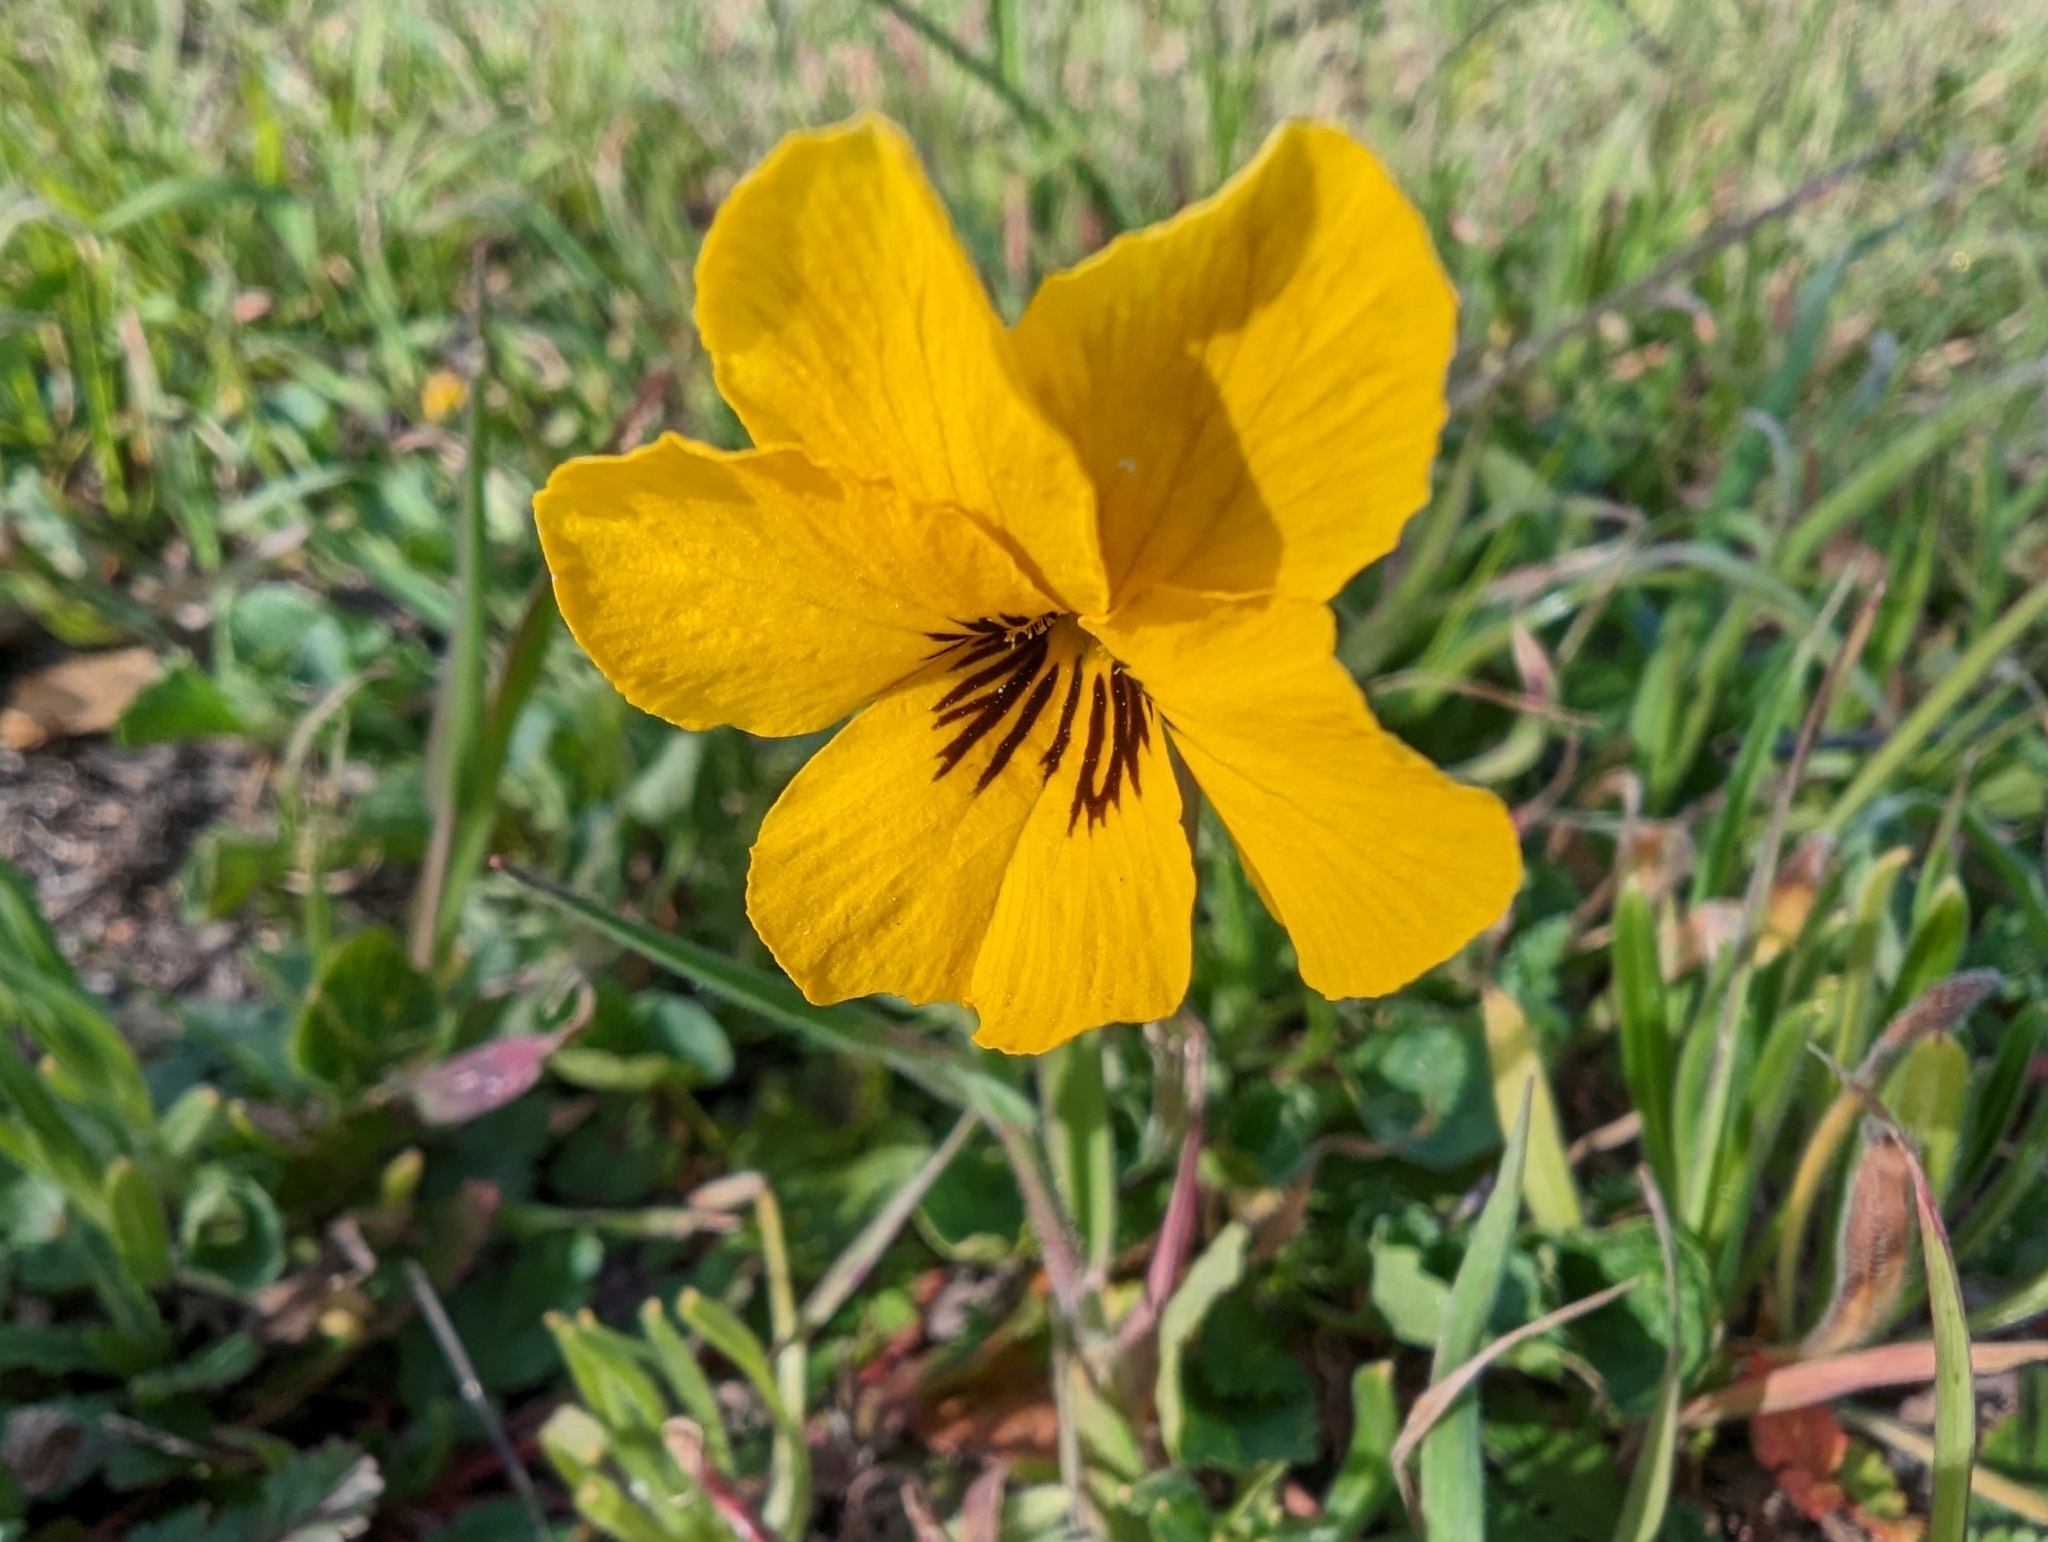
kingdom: Plantae
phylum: Tracheophyta
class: Magnoliopsida
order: Malpighiales
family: Violaceae
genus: Viola
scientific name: Viola pedunculata
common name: California golden violet
